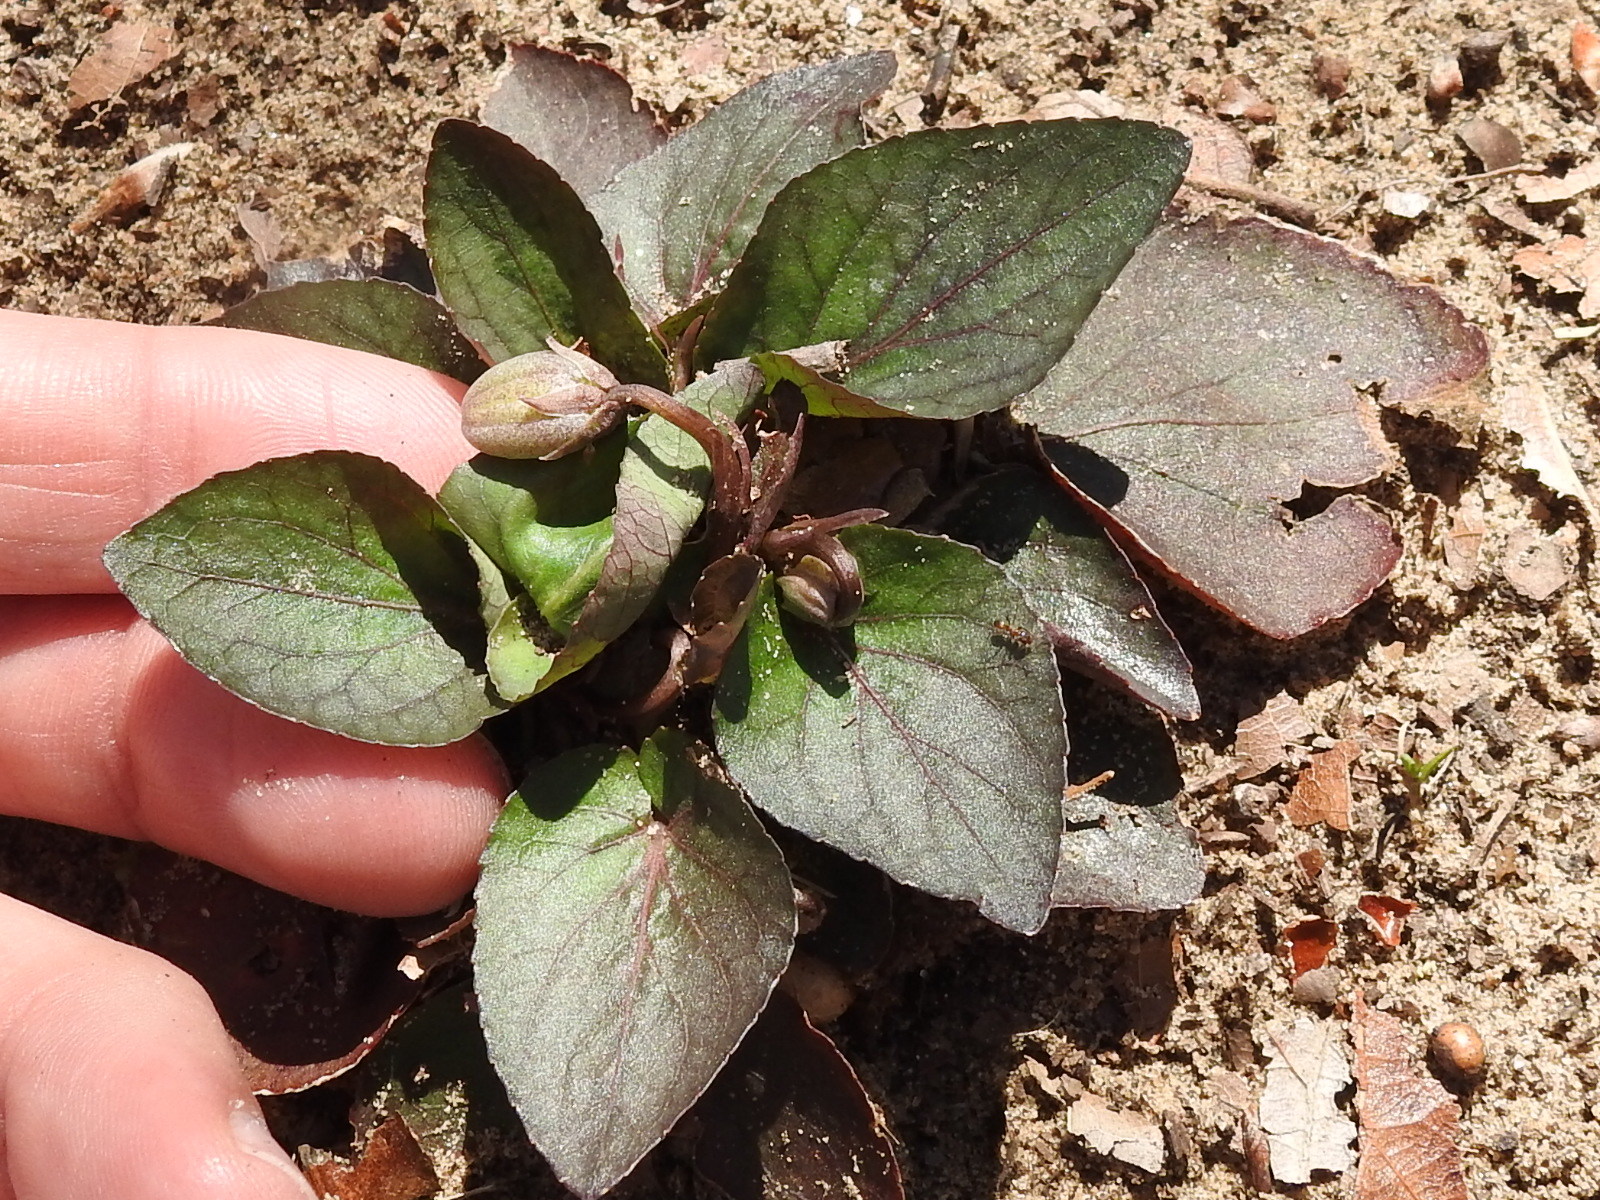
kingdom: Plantae
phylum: Tracheophyta
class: Magnoliopsida
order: Malpighiales
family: Violaceae
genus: Viola
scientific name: Viola villosa
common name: Carolina violet
